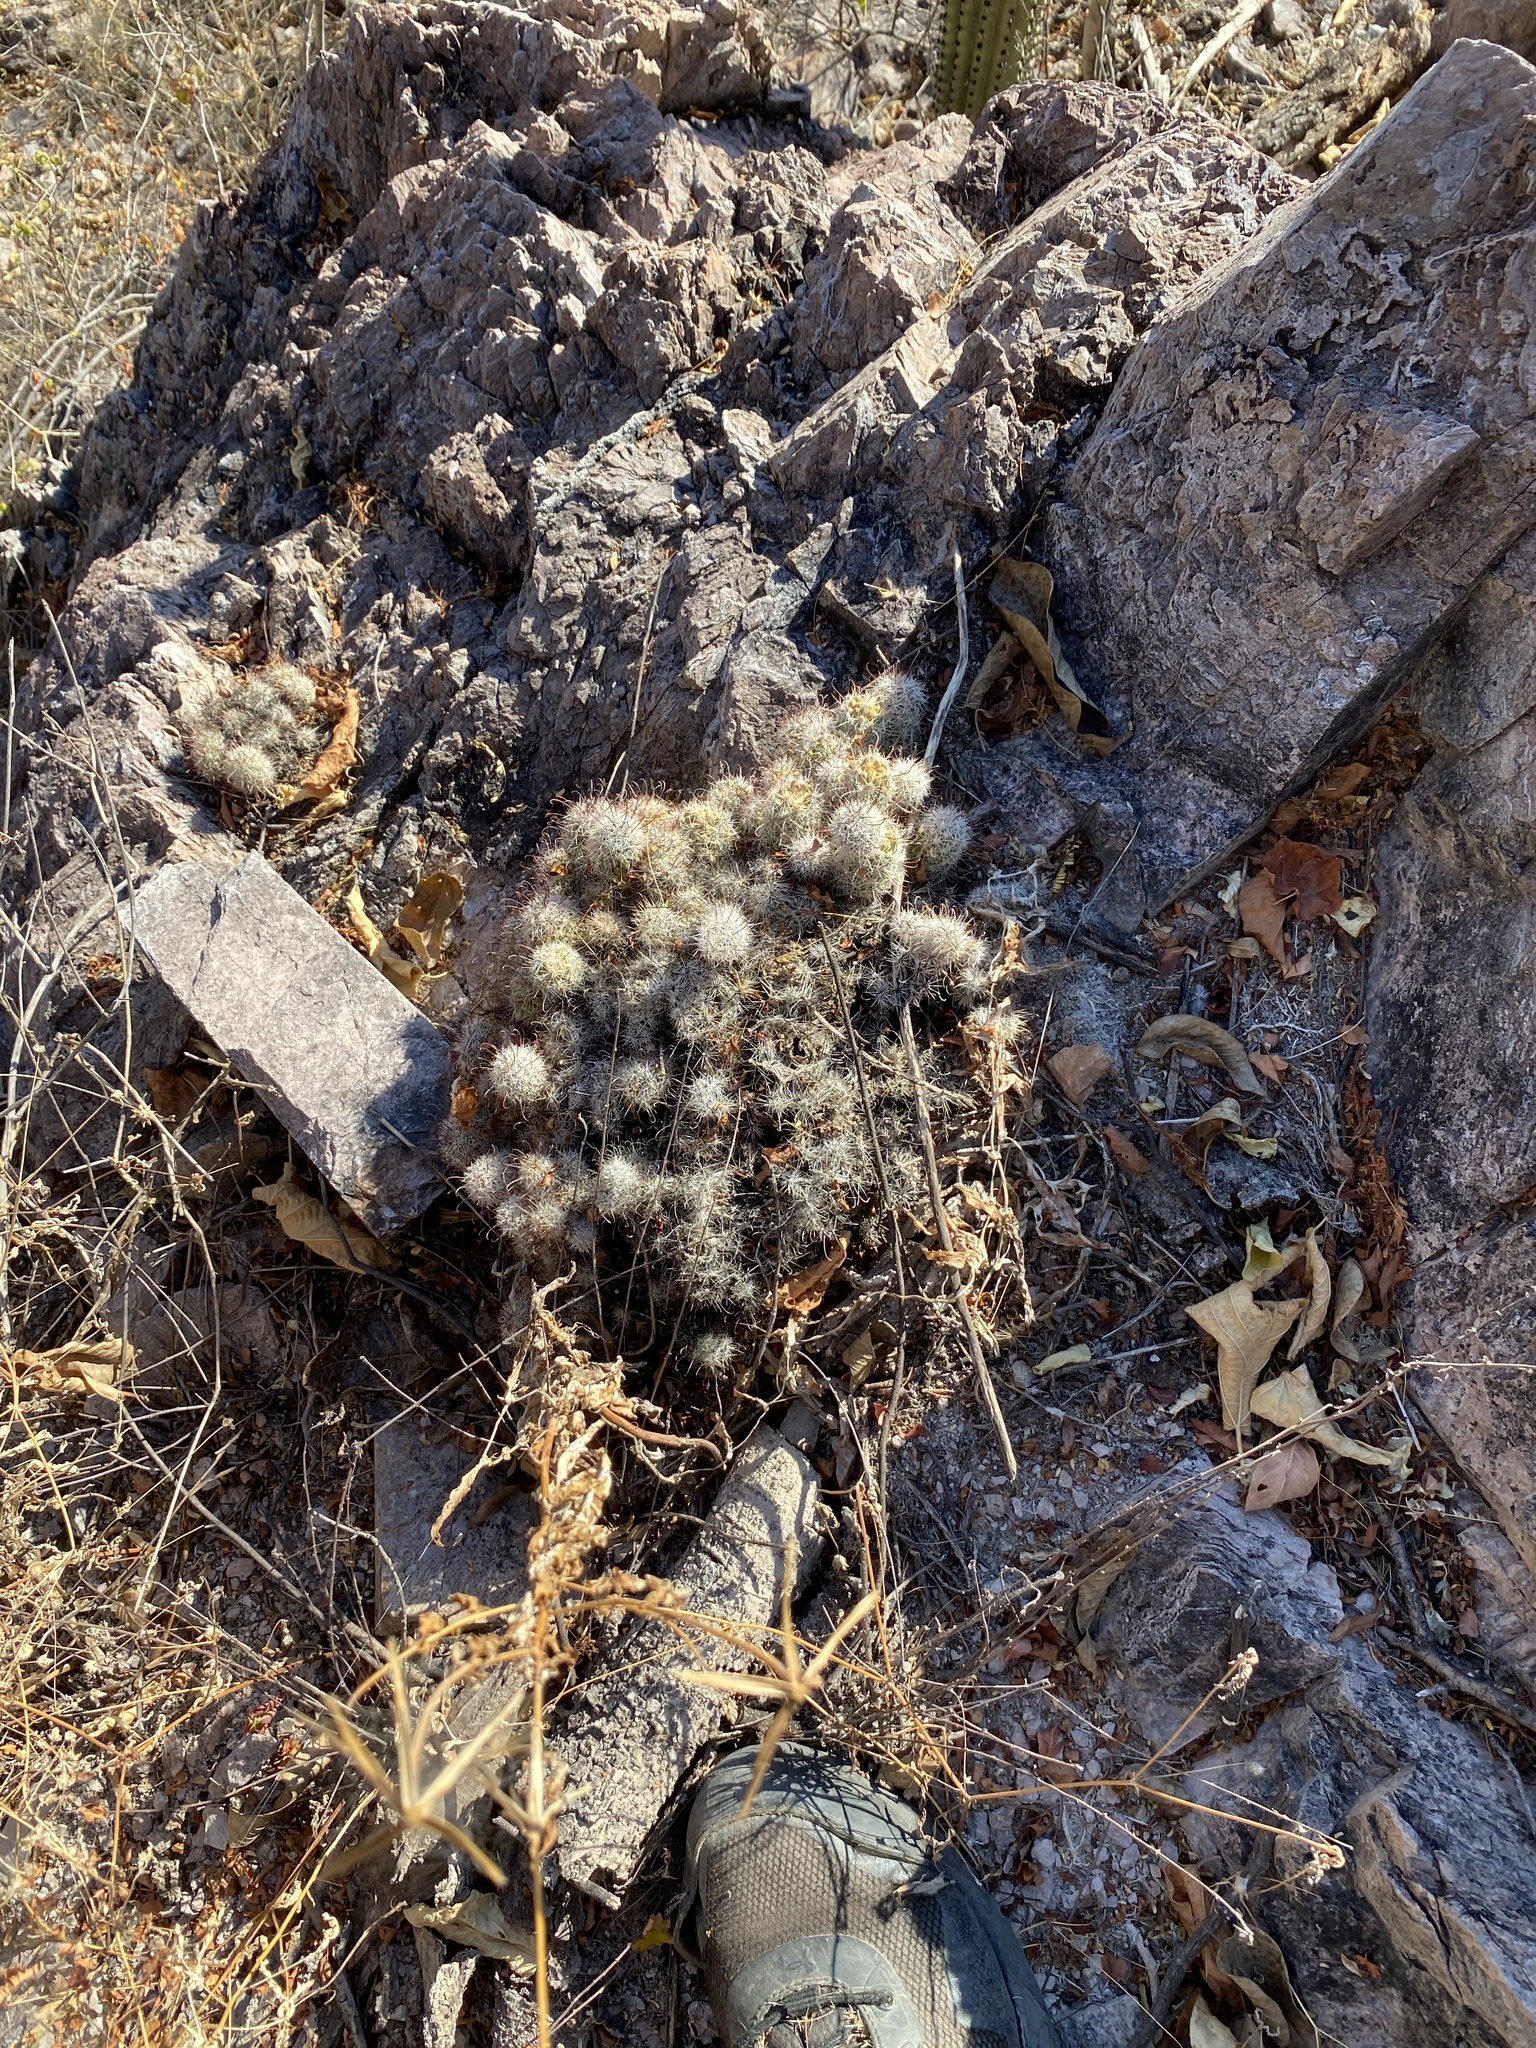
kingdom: Plantae
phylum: Tracheophyta
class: Magnoliopsida
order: Caryophyllales
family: Cactaceae
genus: Cochemiea
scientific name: Cochemiea mazatlanensis
